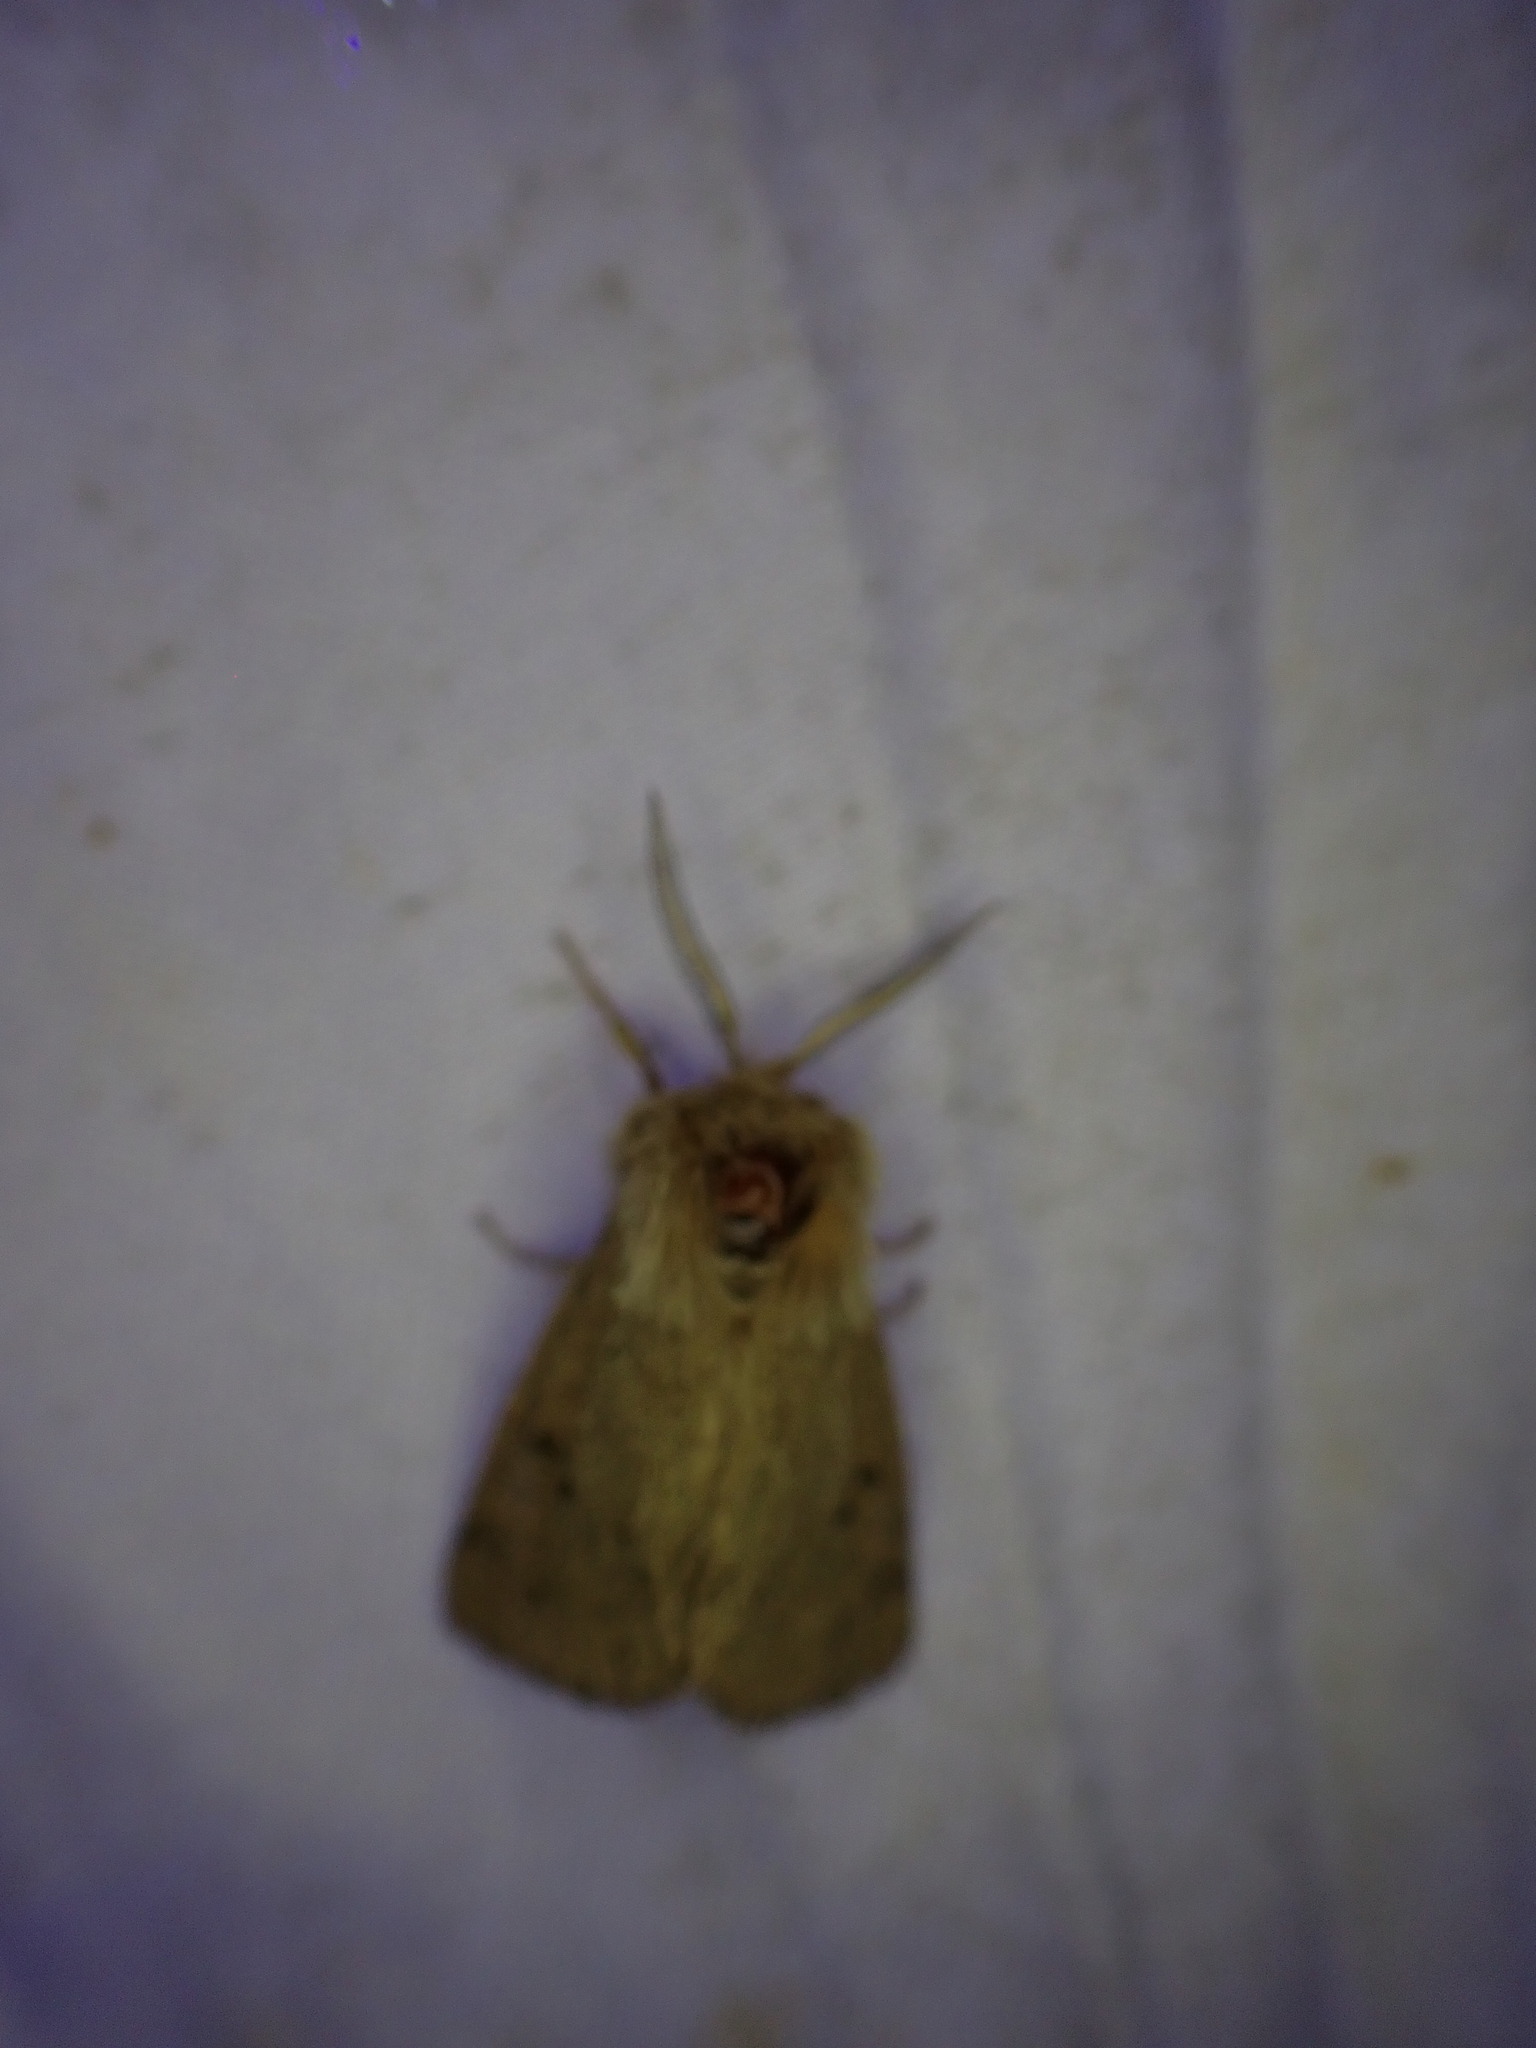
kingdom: Animalia
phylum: Arthropoda
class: Insecta
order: Lepidoptera
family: Erebidae
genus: Spilosoma
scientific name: Spilosoma vagans
